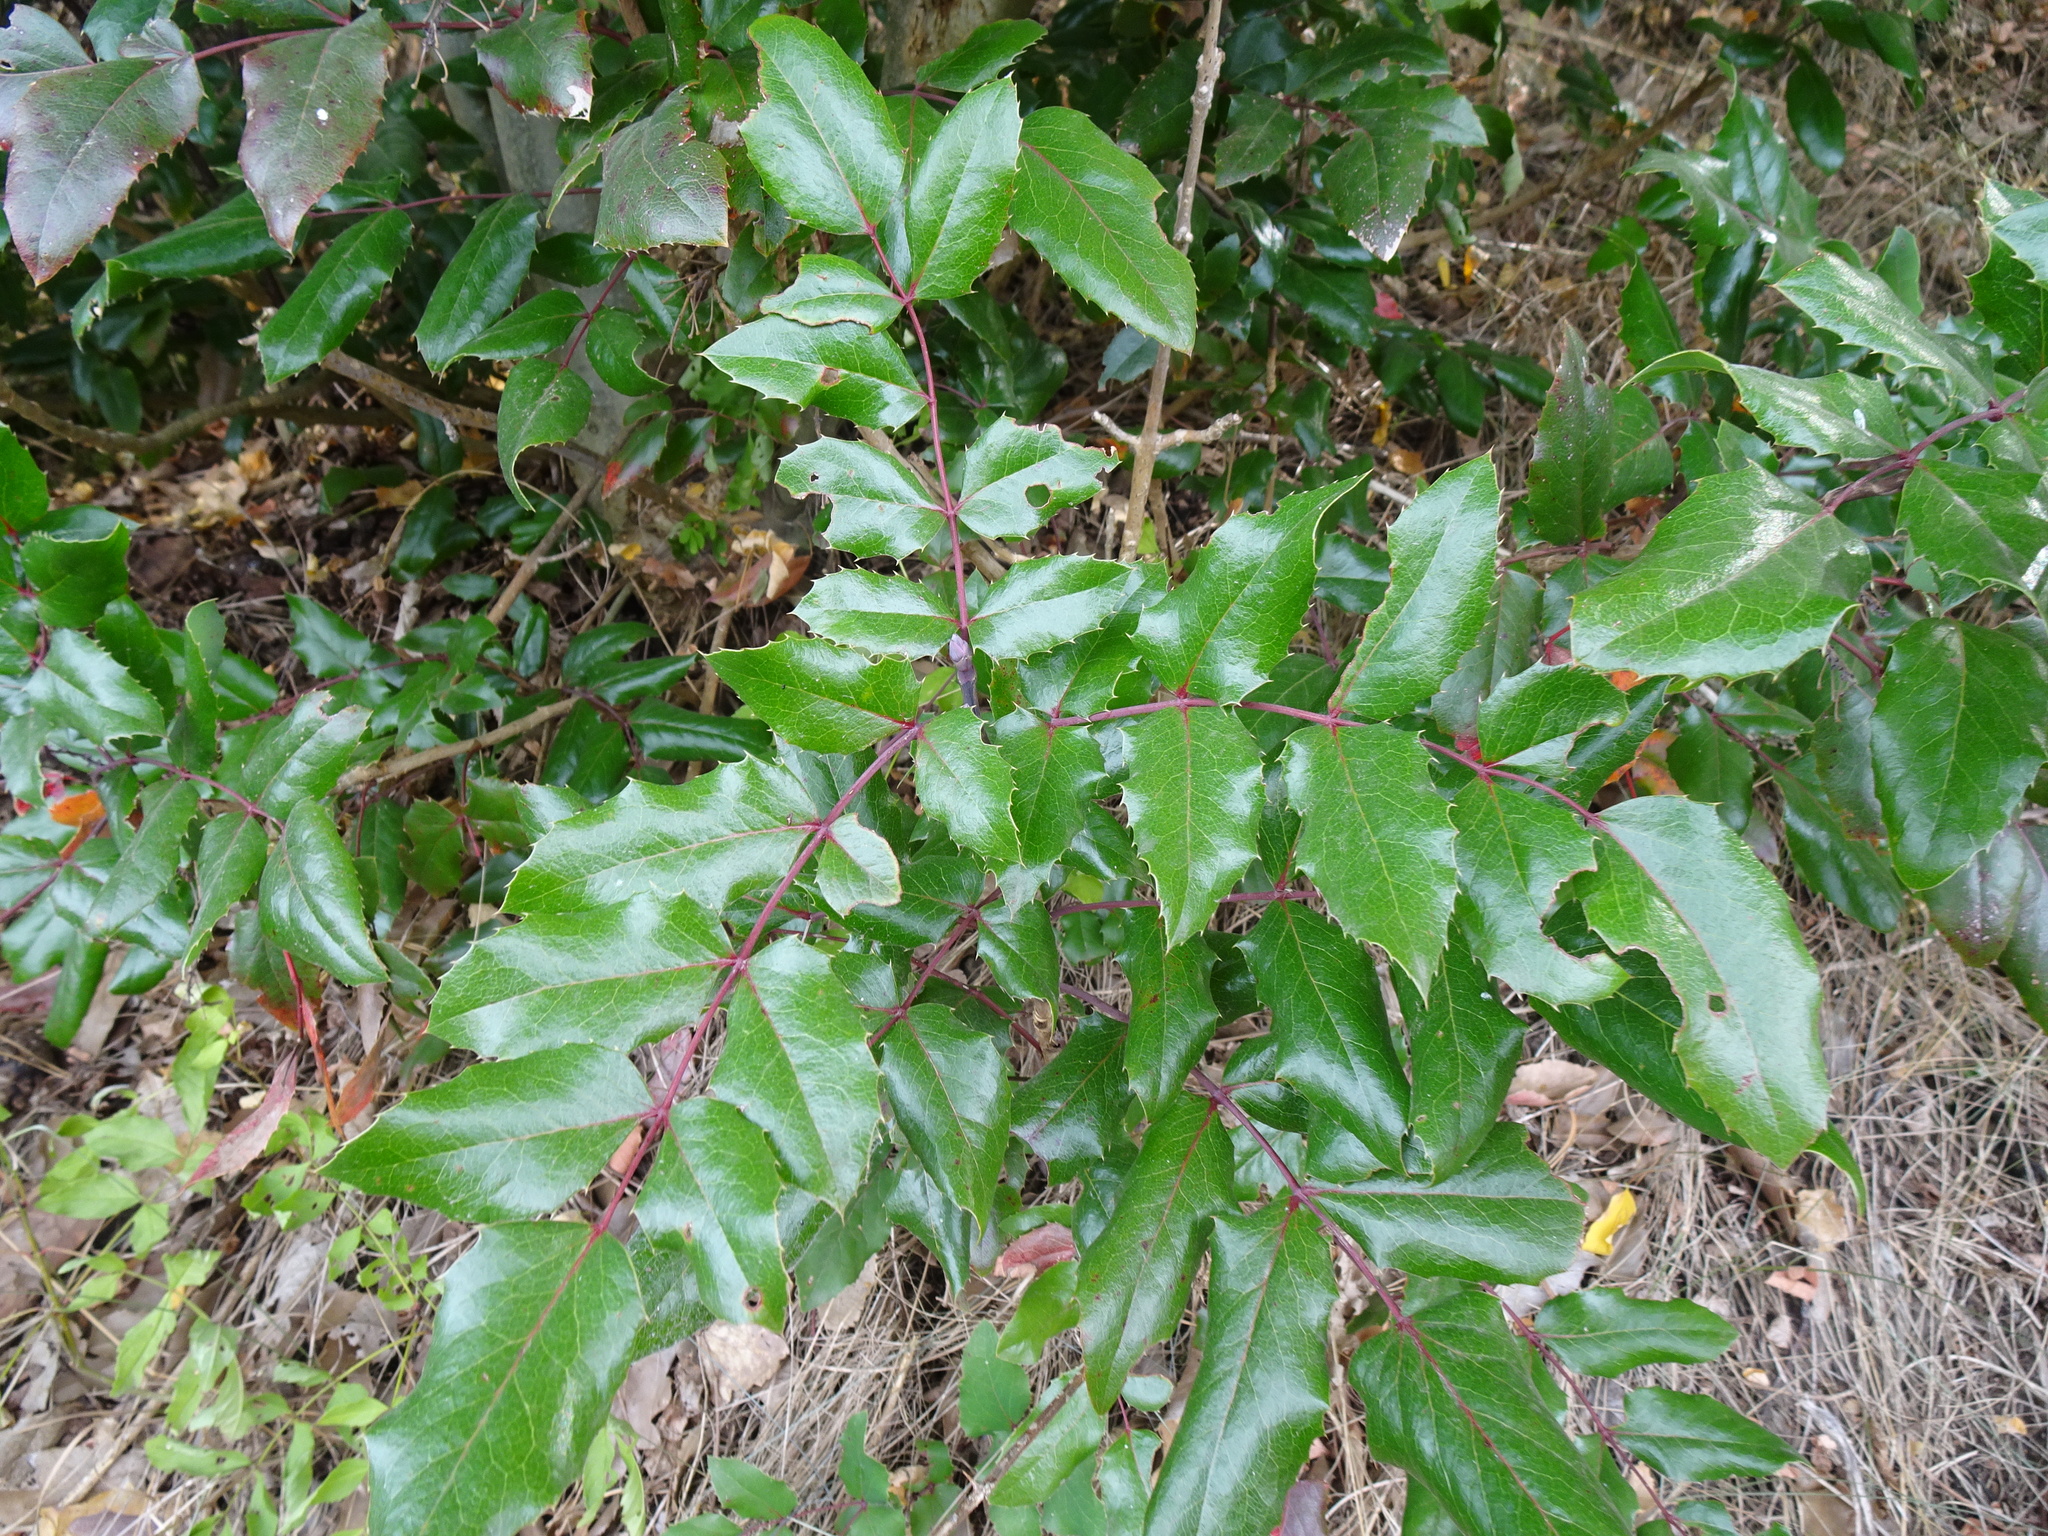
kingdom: Plantae
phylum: Tracheophyta
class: Magnoliopsida
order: Ranunculales
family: Berberidaceae
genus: Mahonia
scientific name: Mahonia aquifolium
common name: Oregon-grape
